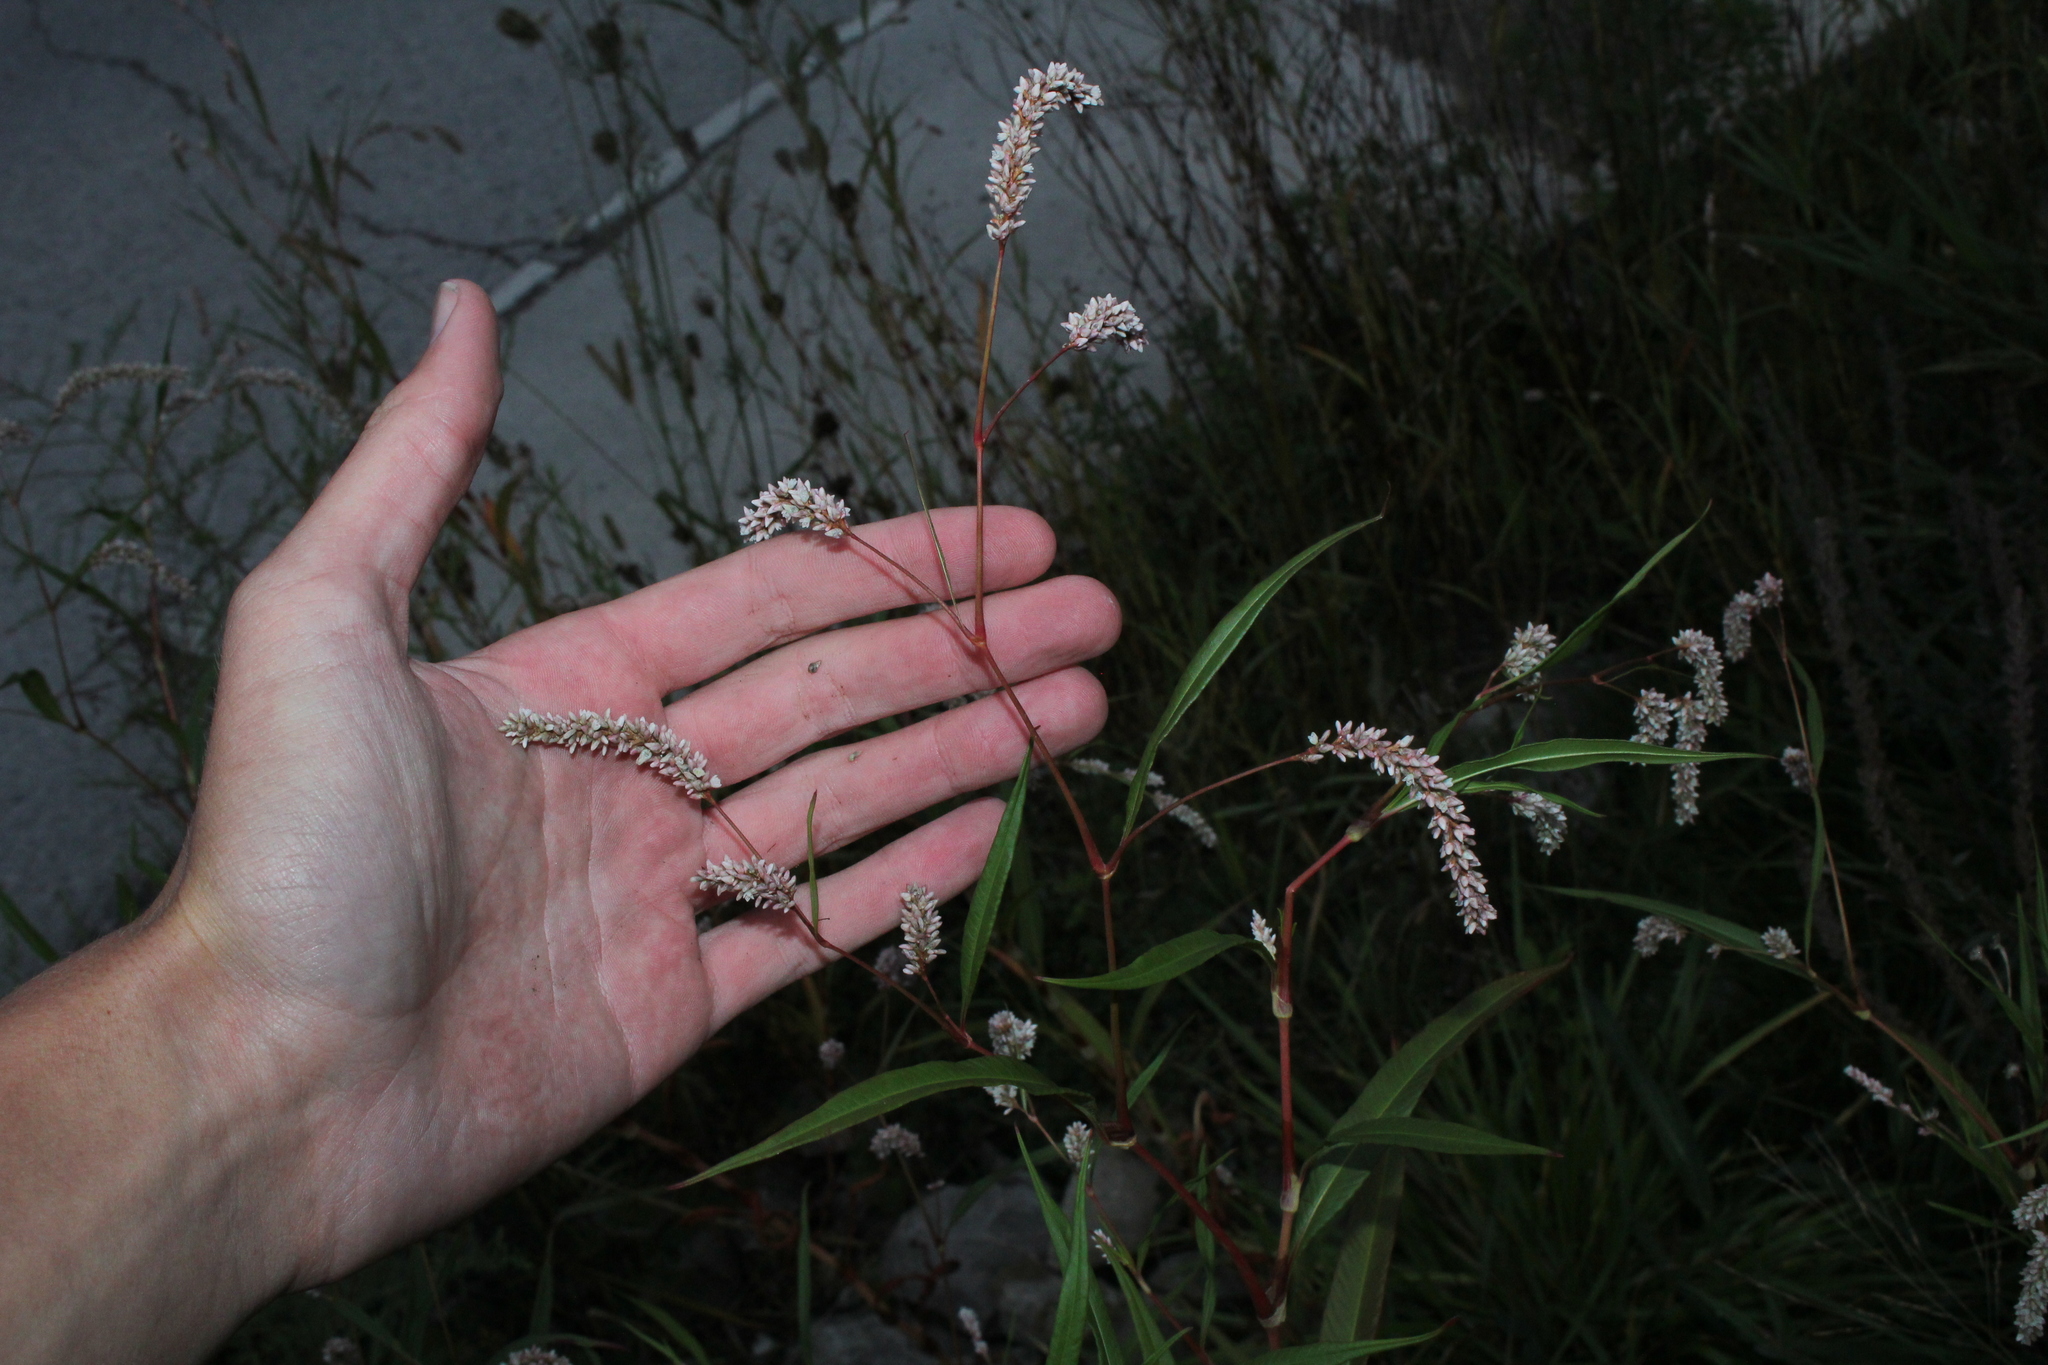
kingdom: Plantae
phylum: Tracheophyta
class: Magnoliopsida
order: Caryophyllales
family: Polygonaceae
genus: Persicaria
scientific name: Persicaria lapathifolia
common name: Curlytop knotweed
